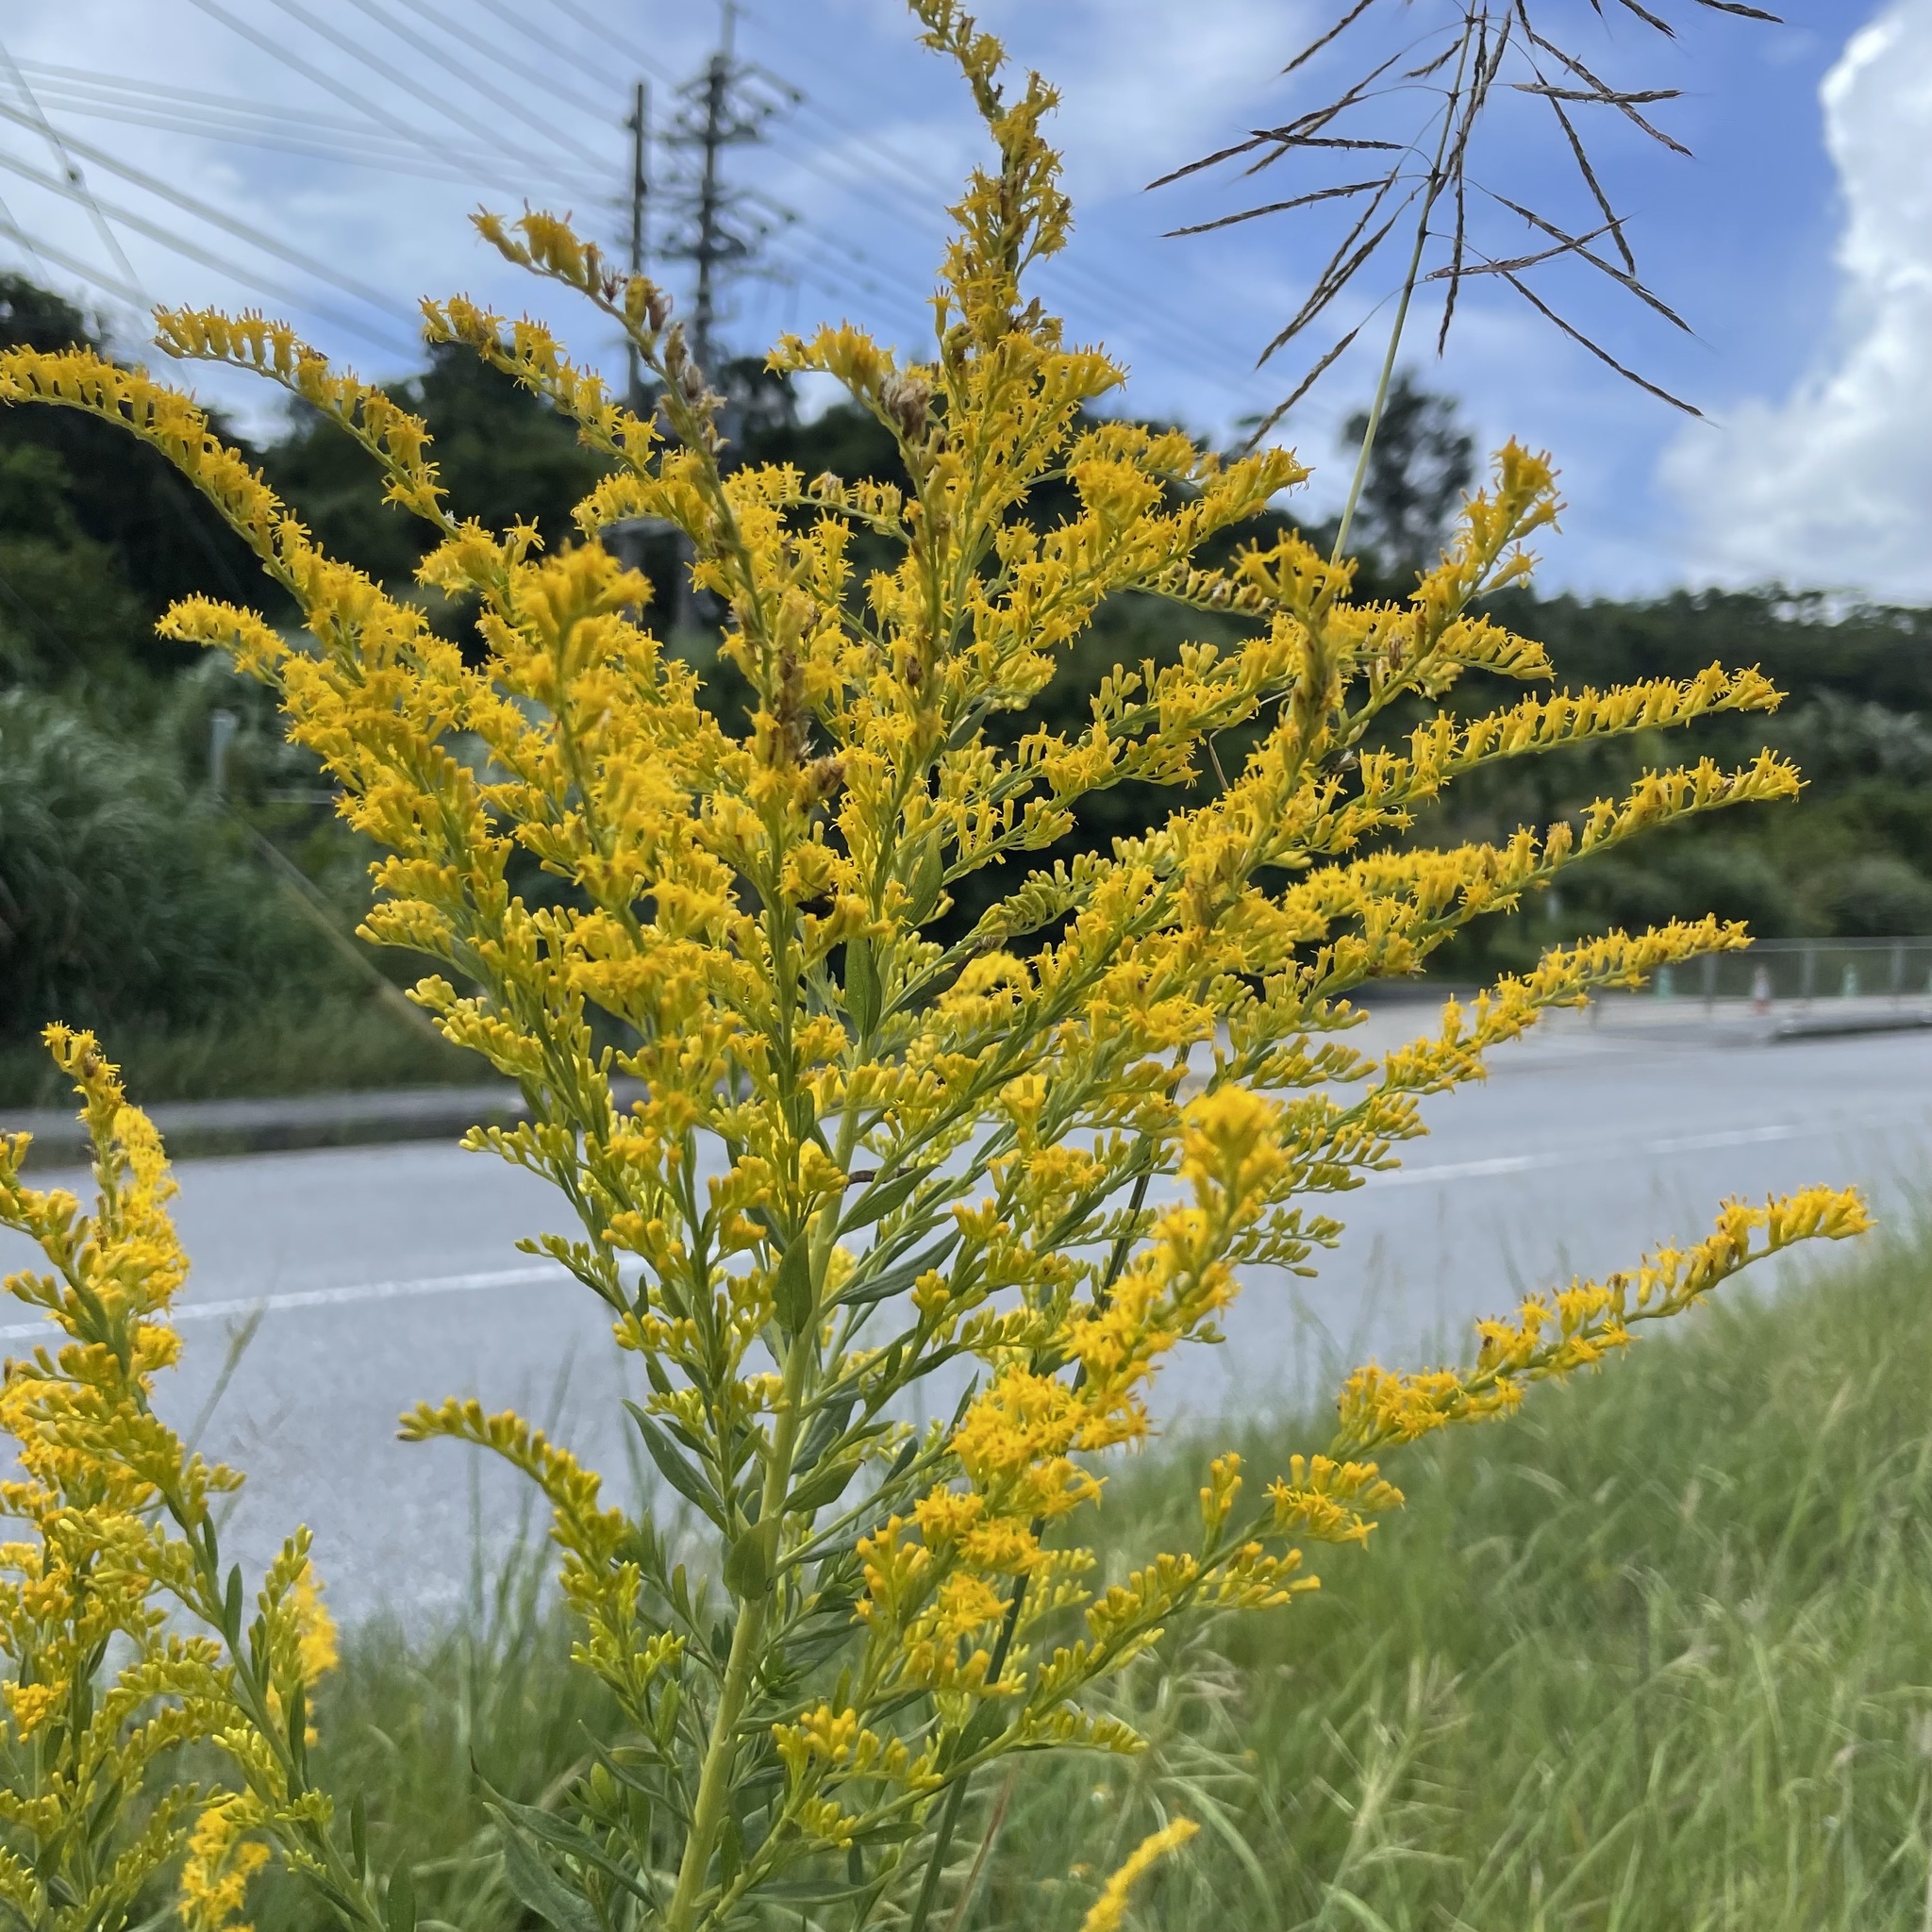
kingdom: Plantae
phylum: Tracheophyta
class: Magnoliopsida
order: Asterales
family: Asteraceae
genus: Solidago
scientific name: Solidago altissima
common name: Late goldenrod
